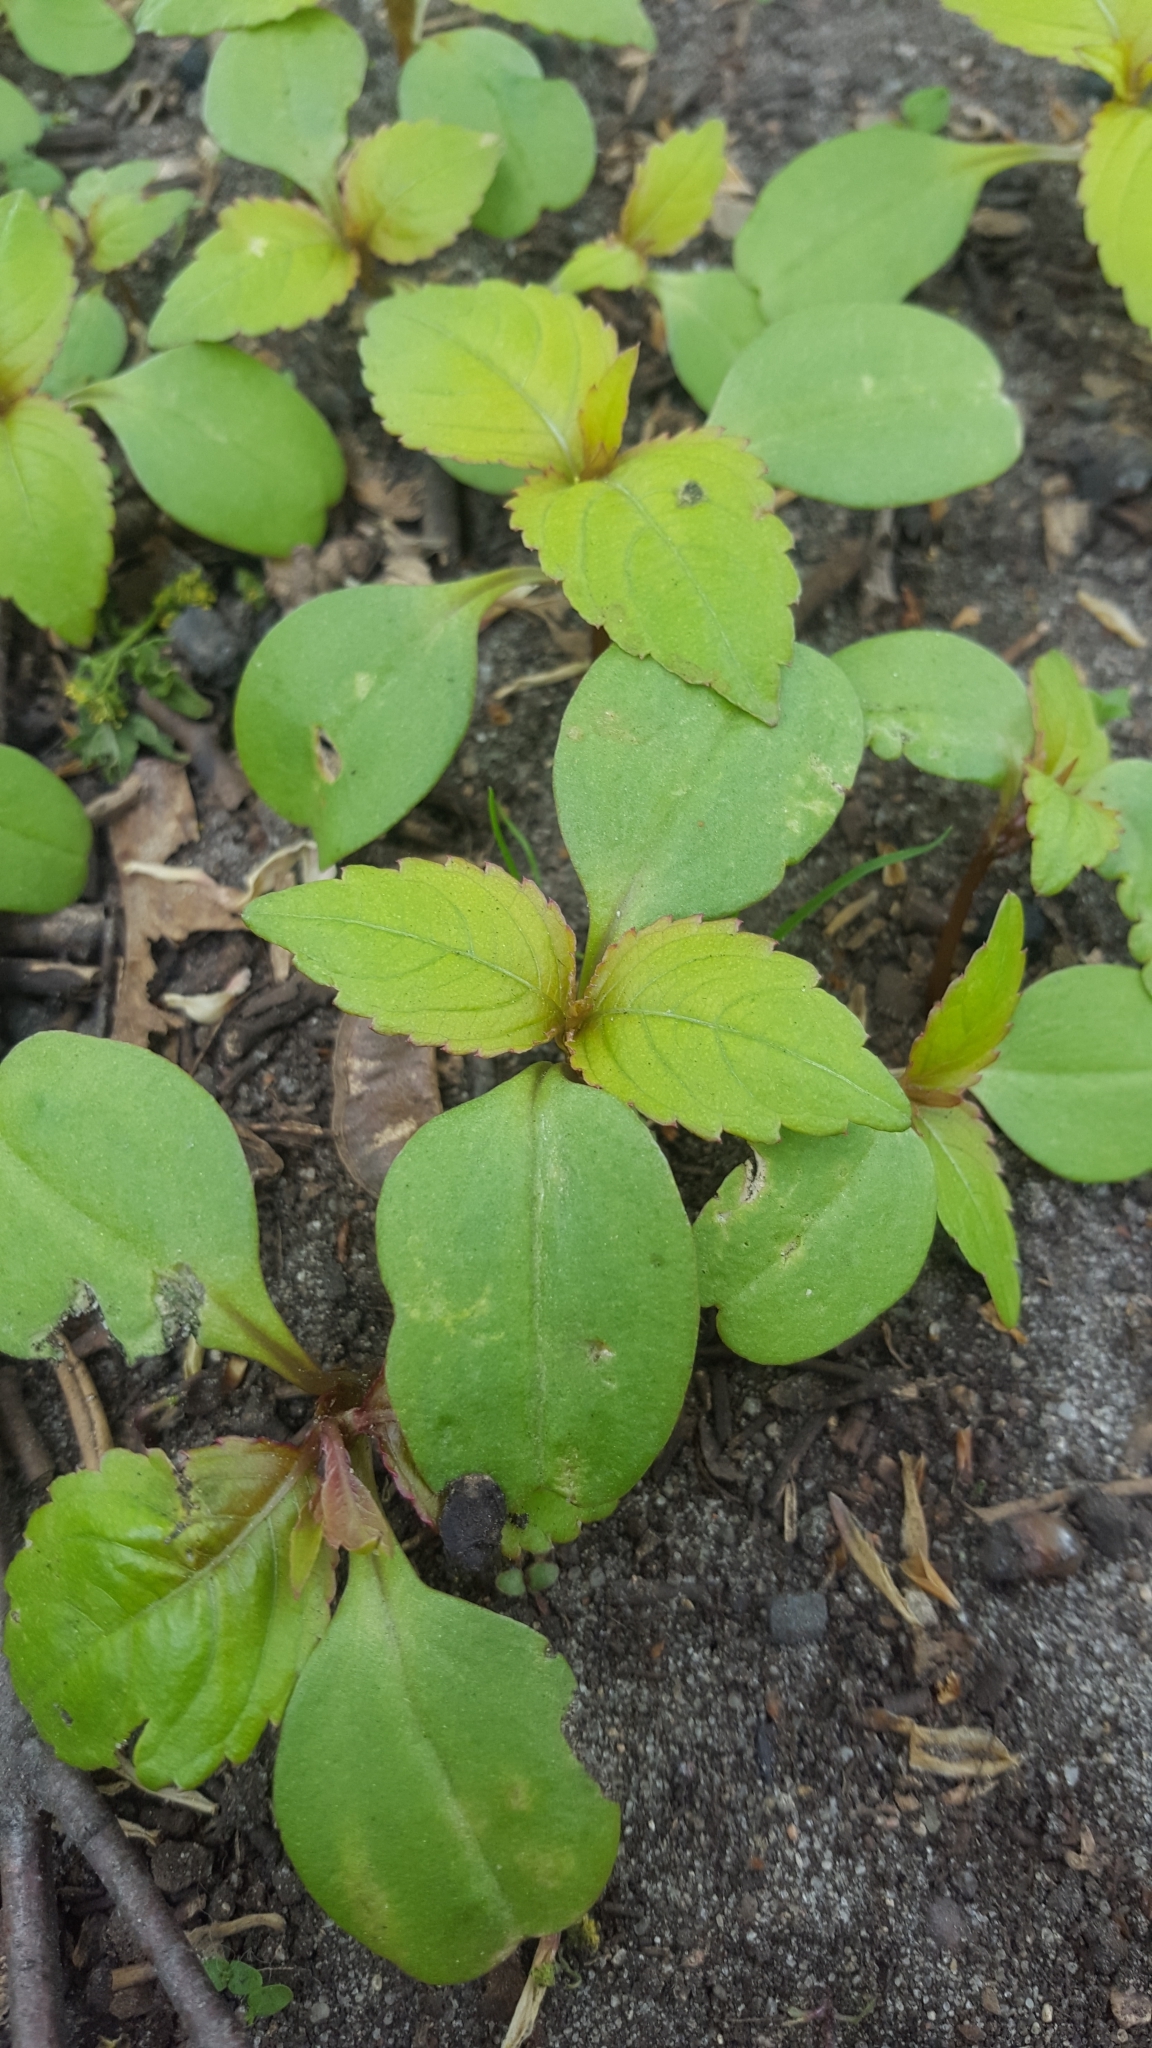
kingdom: Plantae
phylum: Tracheophyta
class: Magnoliopsida
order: Ericales
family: Balsaminaceae
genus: Impatiens
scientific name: Impatiens parviflora
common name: Small balsam
